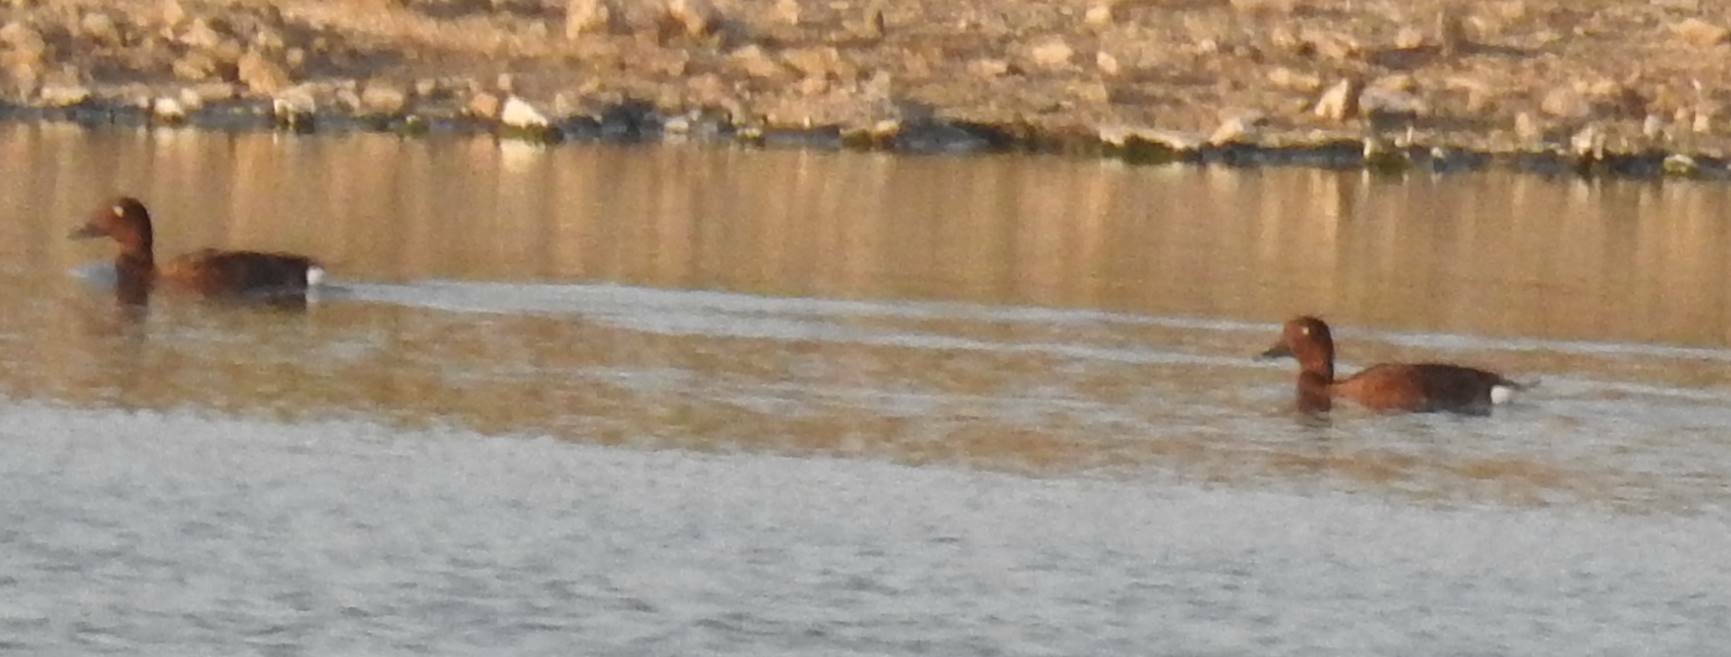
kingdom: Animalia
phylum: Chordata
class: Aves
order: Anseriformes
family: Anatidae
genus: Aythya
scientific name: Aythya nyroca
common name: Ferruginous duck
